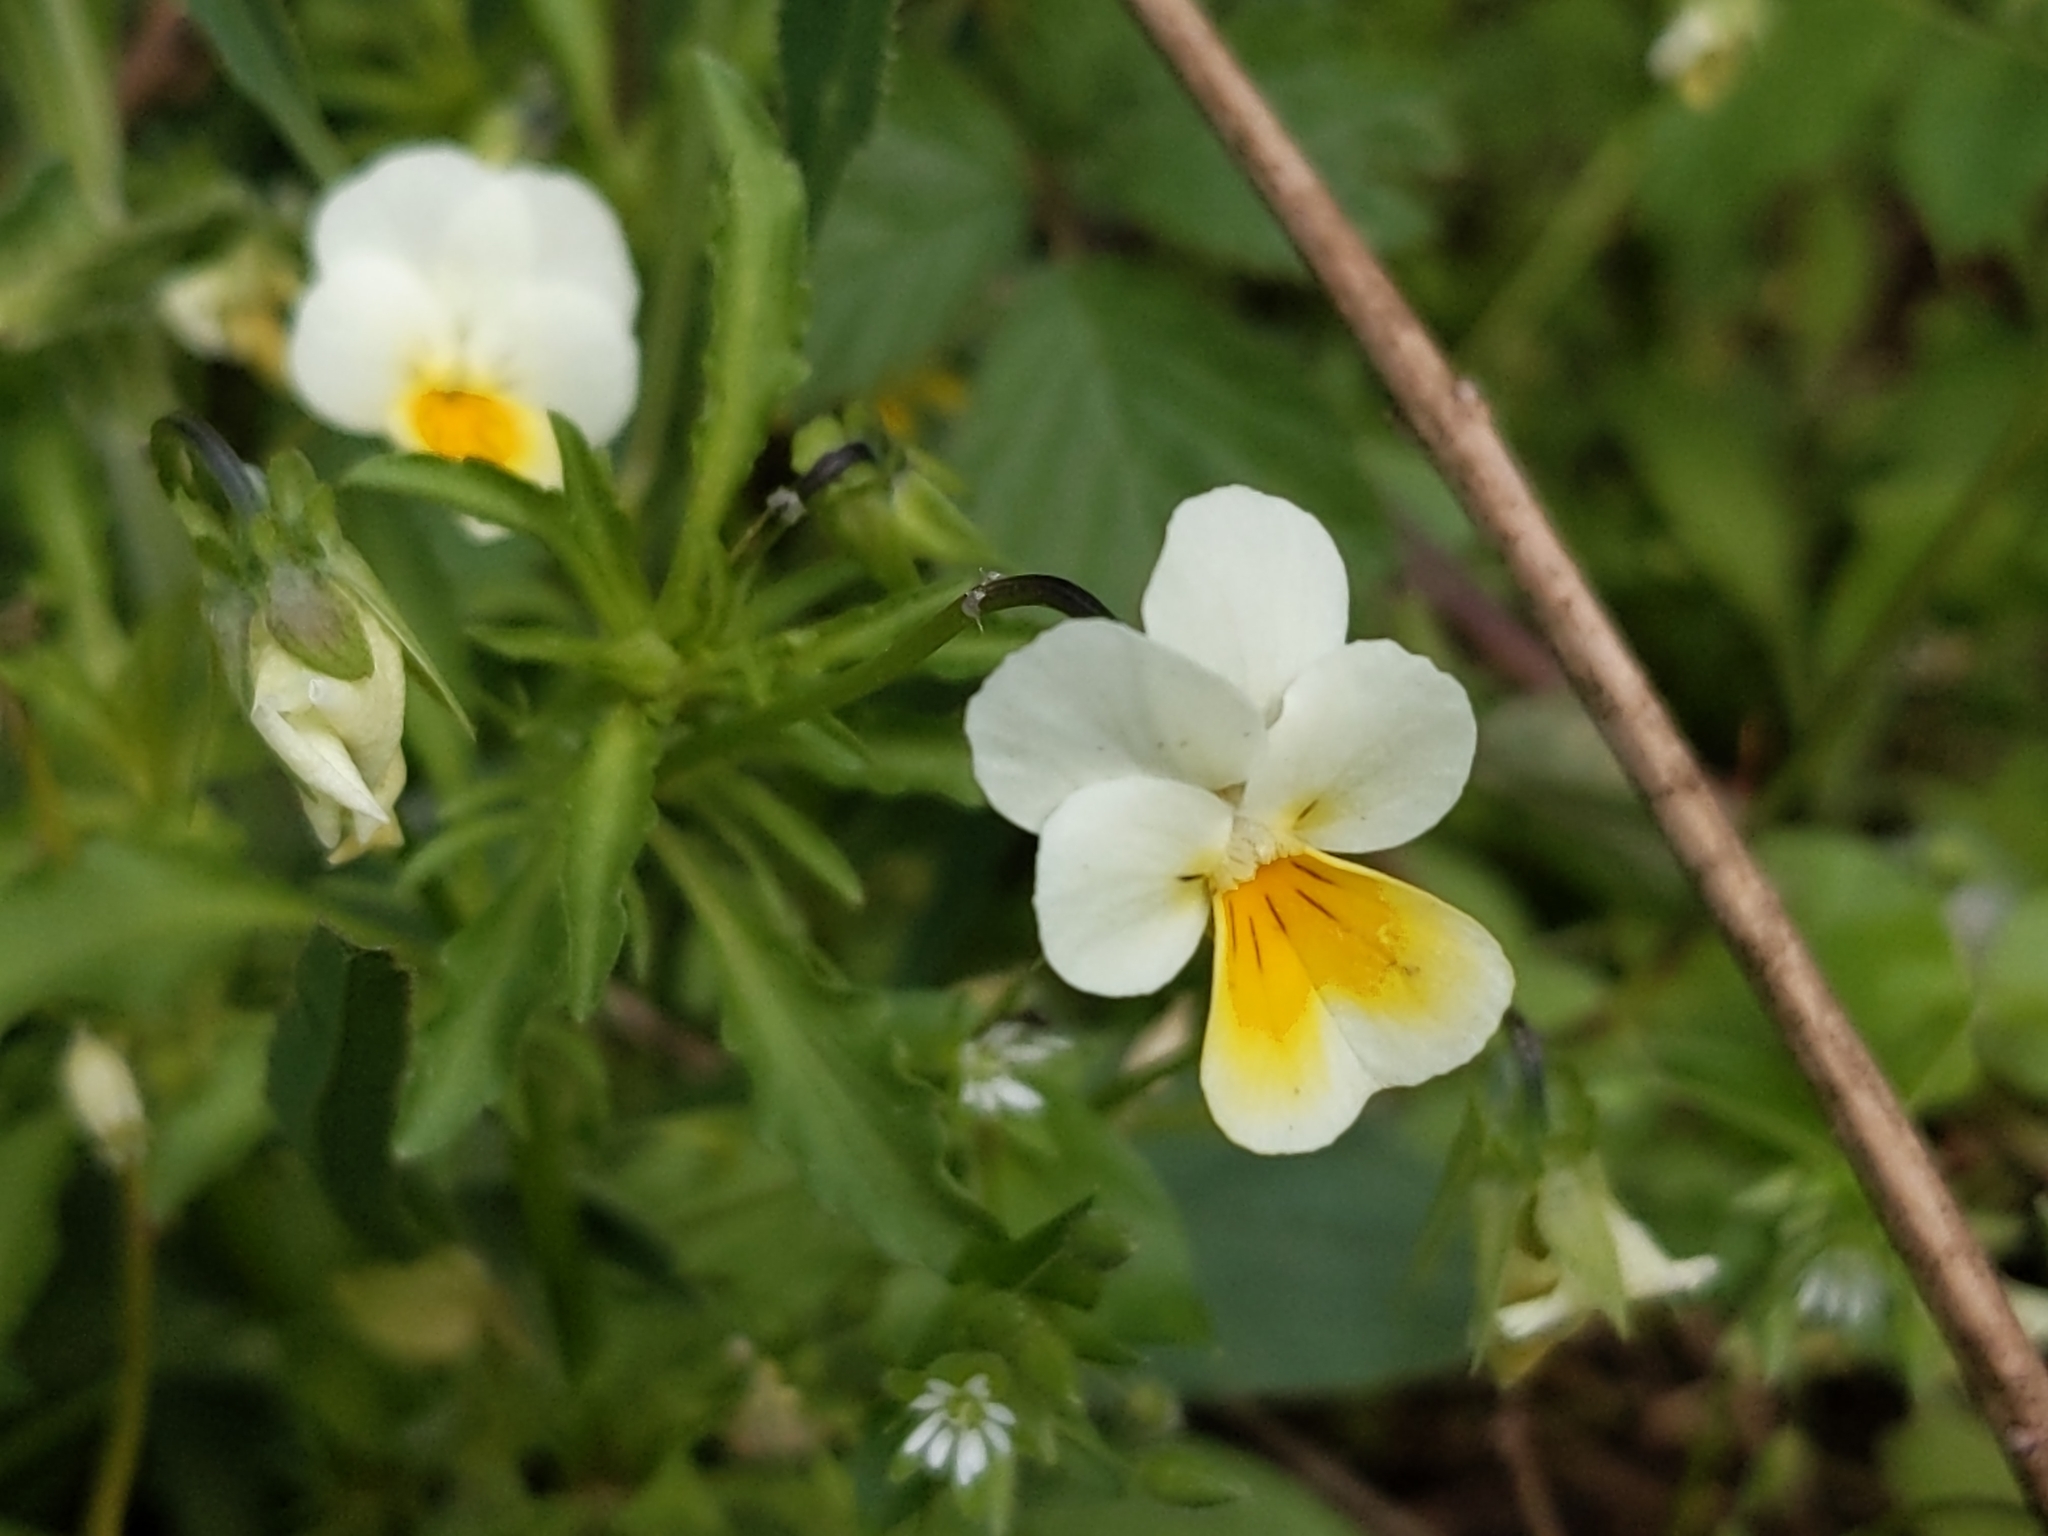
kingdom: Plantae
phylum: Tracheophyta
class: Magnoliopsida
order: Malpighiales
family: Violaceae
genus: Viola
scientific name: Viola arvensis
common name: Field pansy
